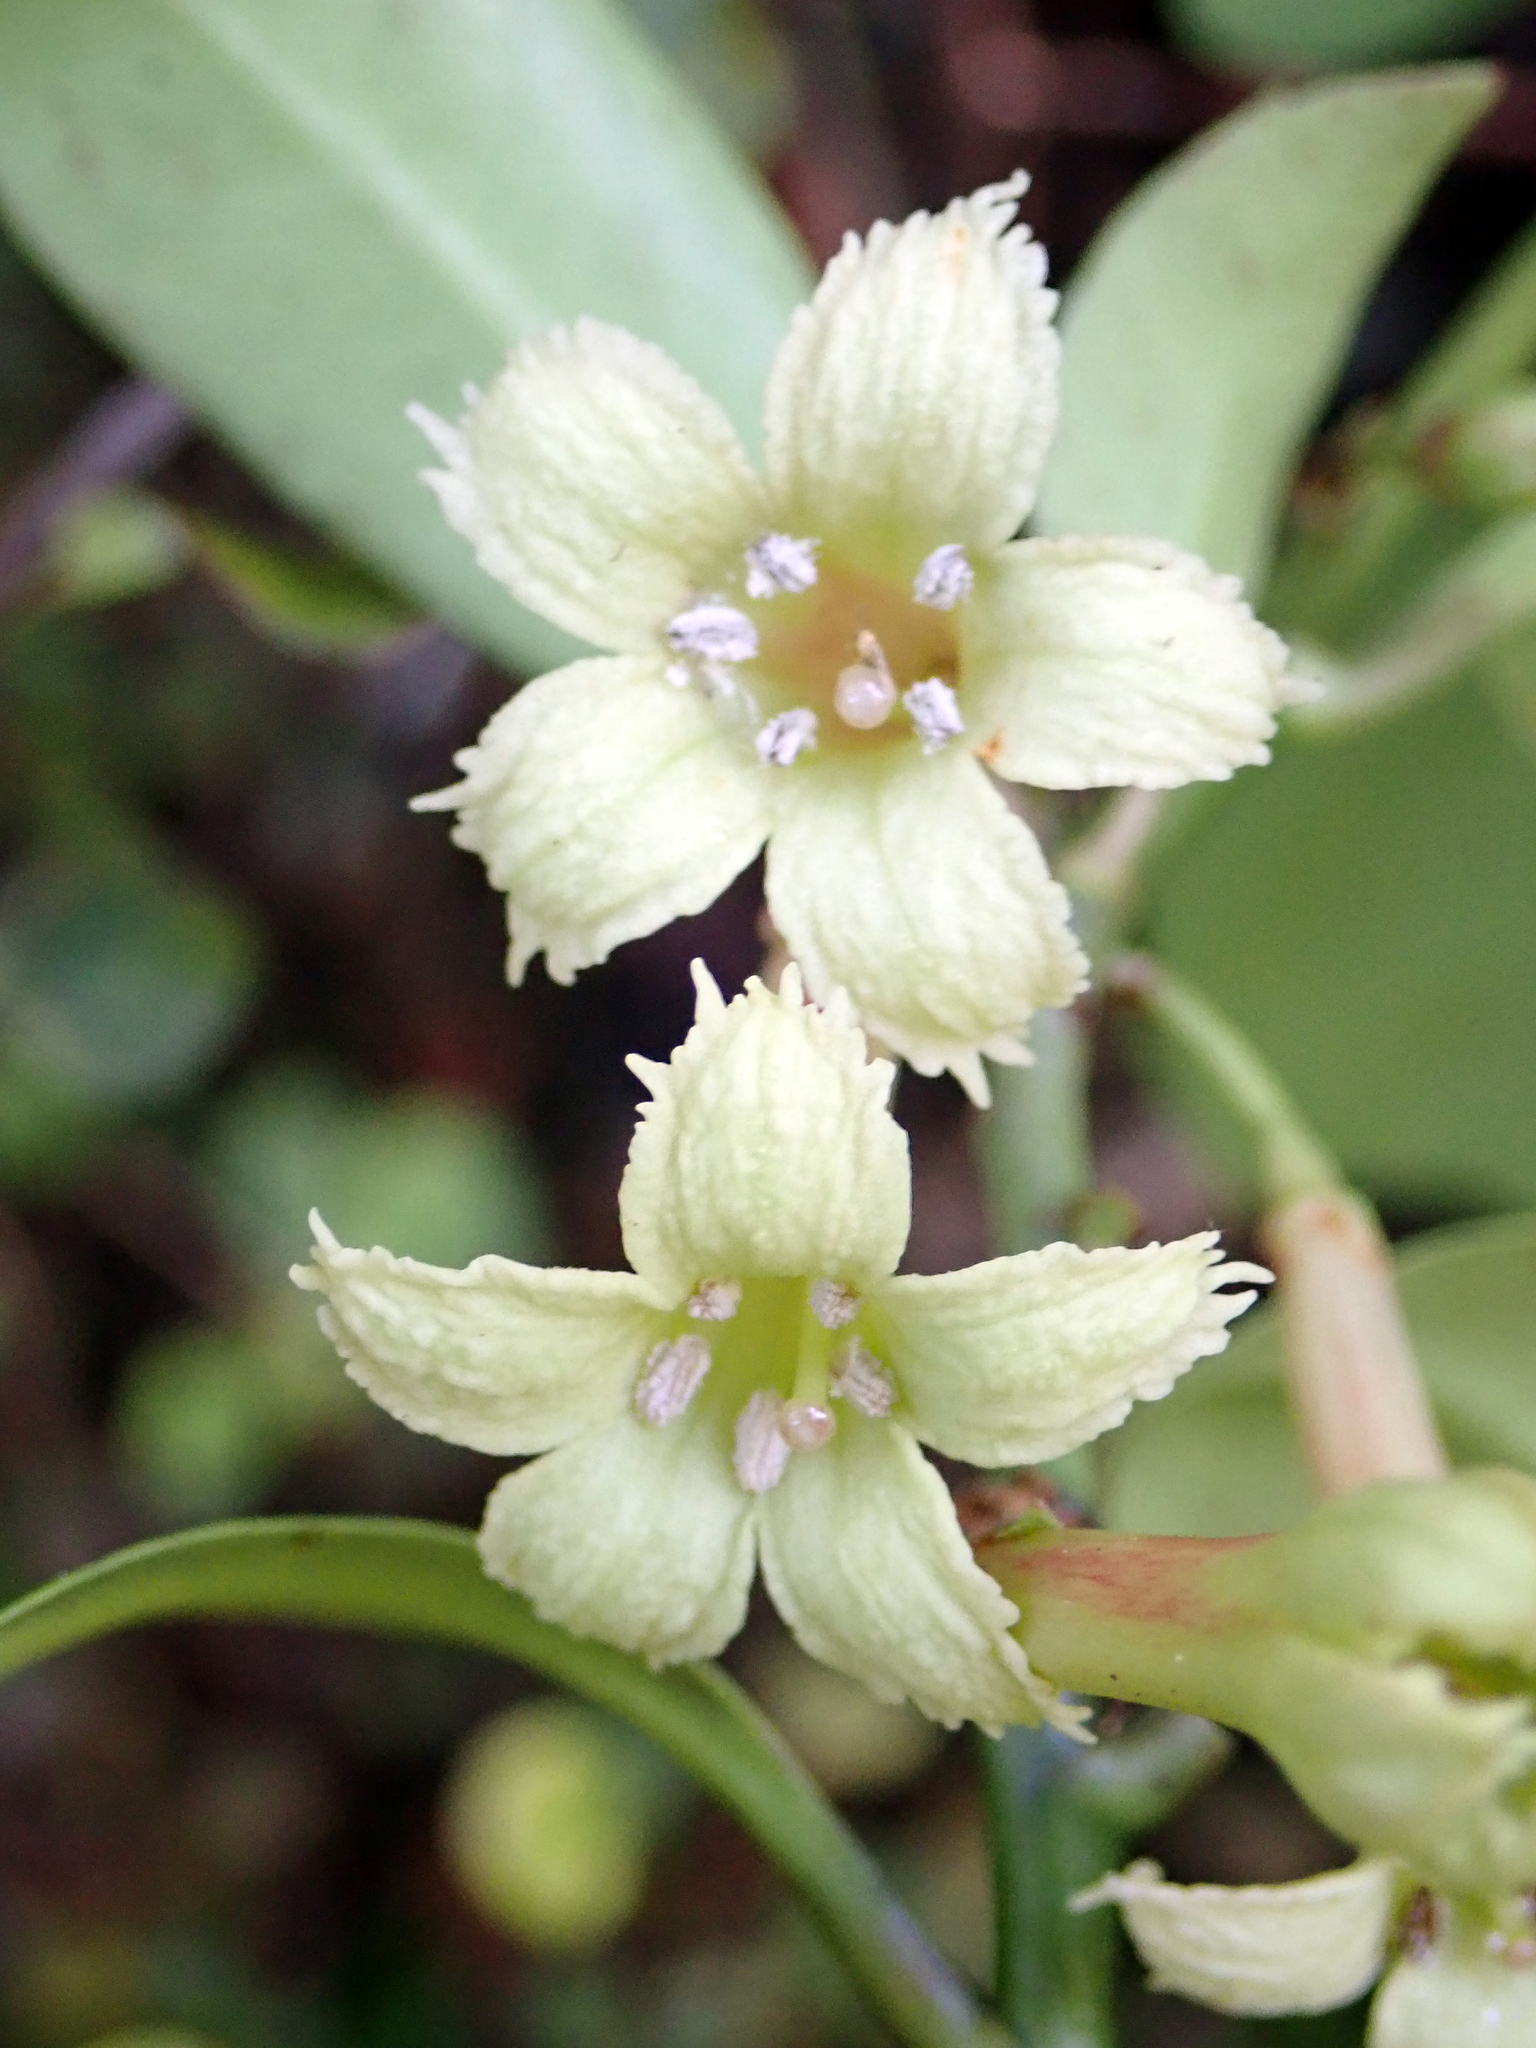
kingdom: Plantae
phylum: Tracheophyta
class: Magnoliopsida
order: Asterales
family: Alseuosmiaceae
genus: Alseuosmia
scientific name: Alseuosmia macrophylla
